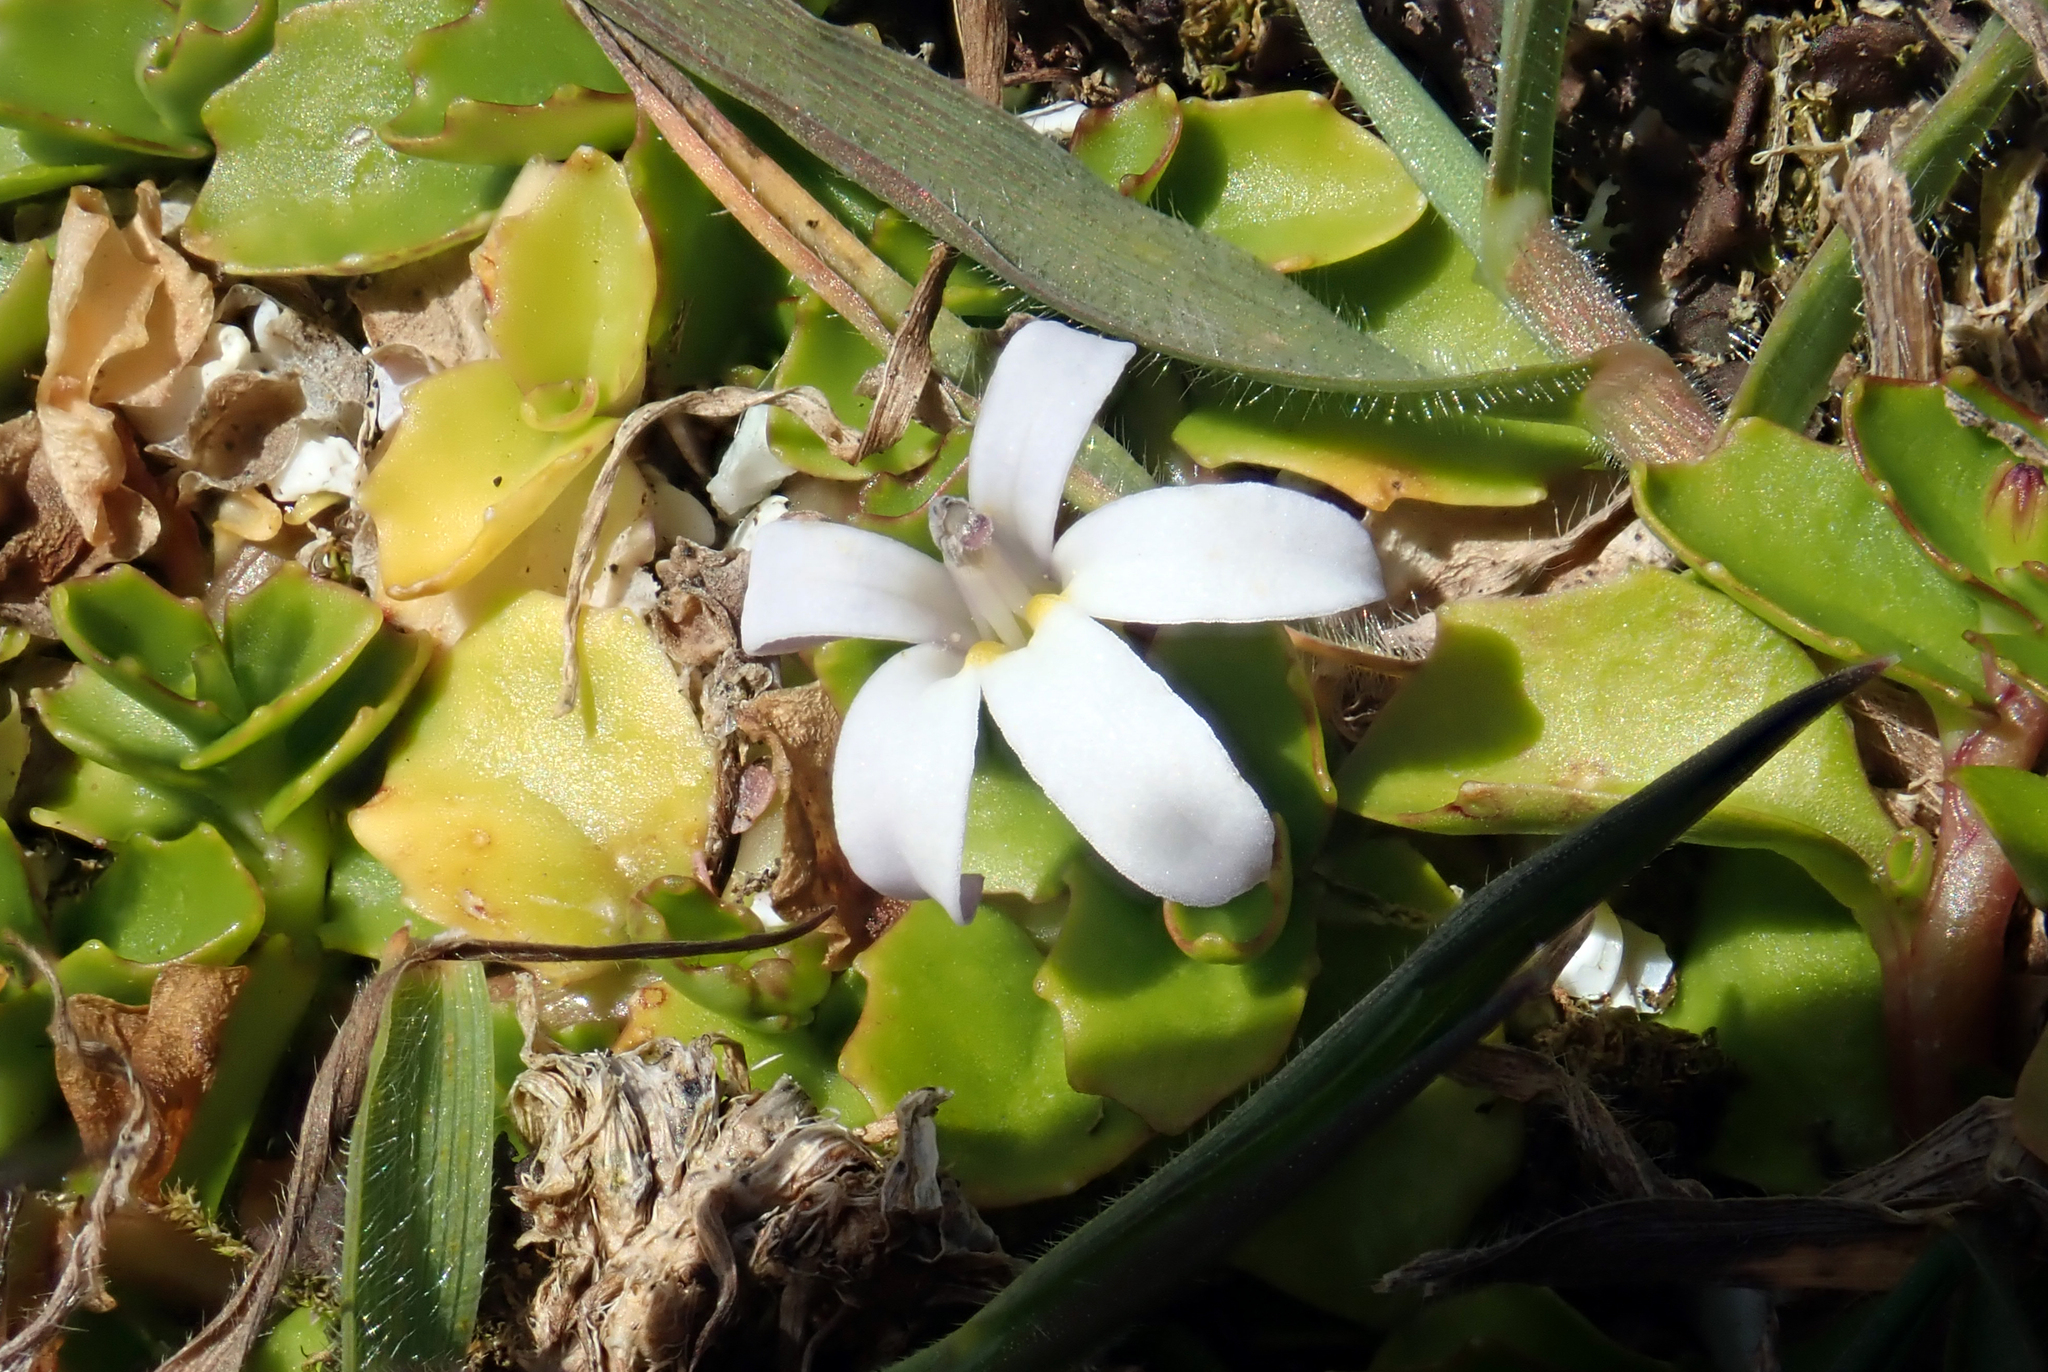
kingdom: Plantae
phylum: Tracheophyta
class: Magnoliopsida
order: Asterales
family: Campanulaceae
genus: Lobelia
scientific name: Lobelia arenaria
